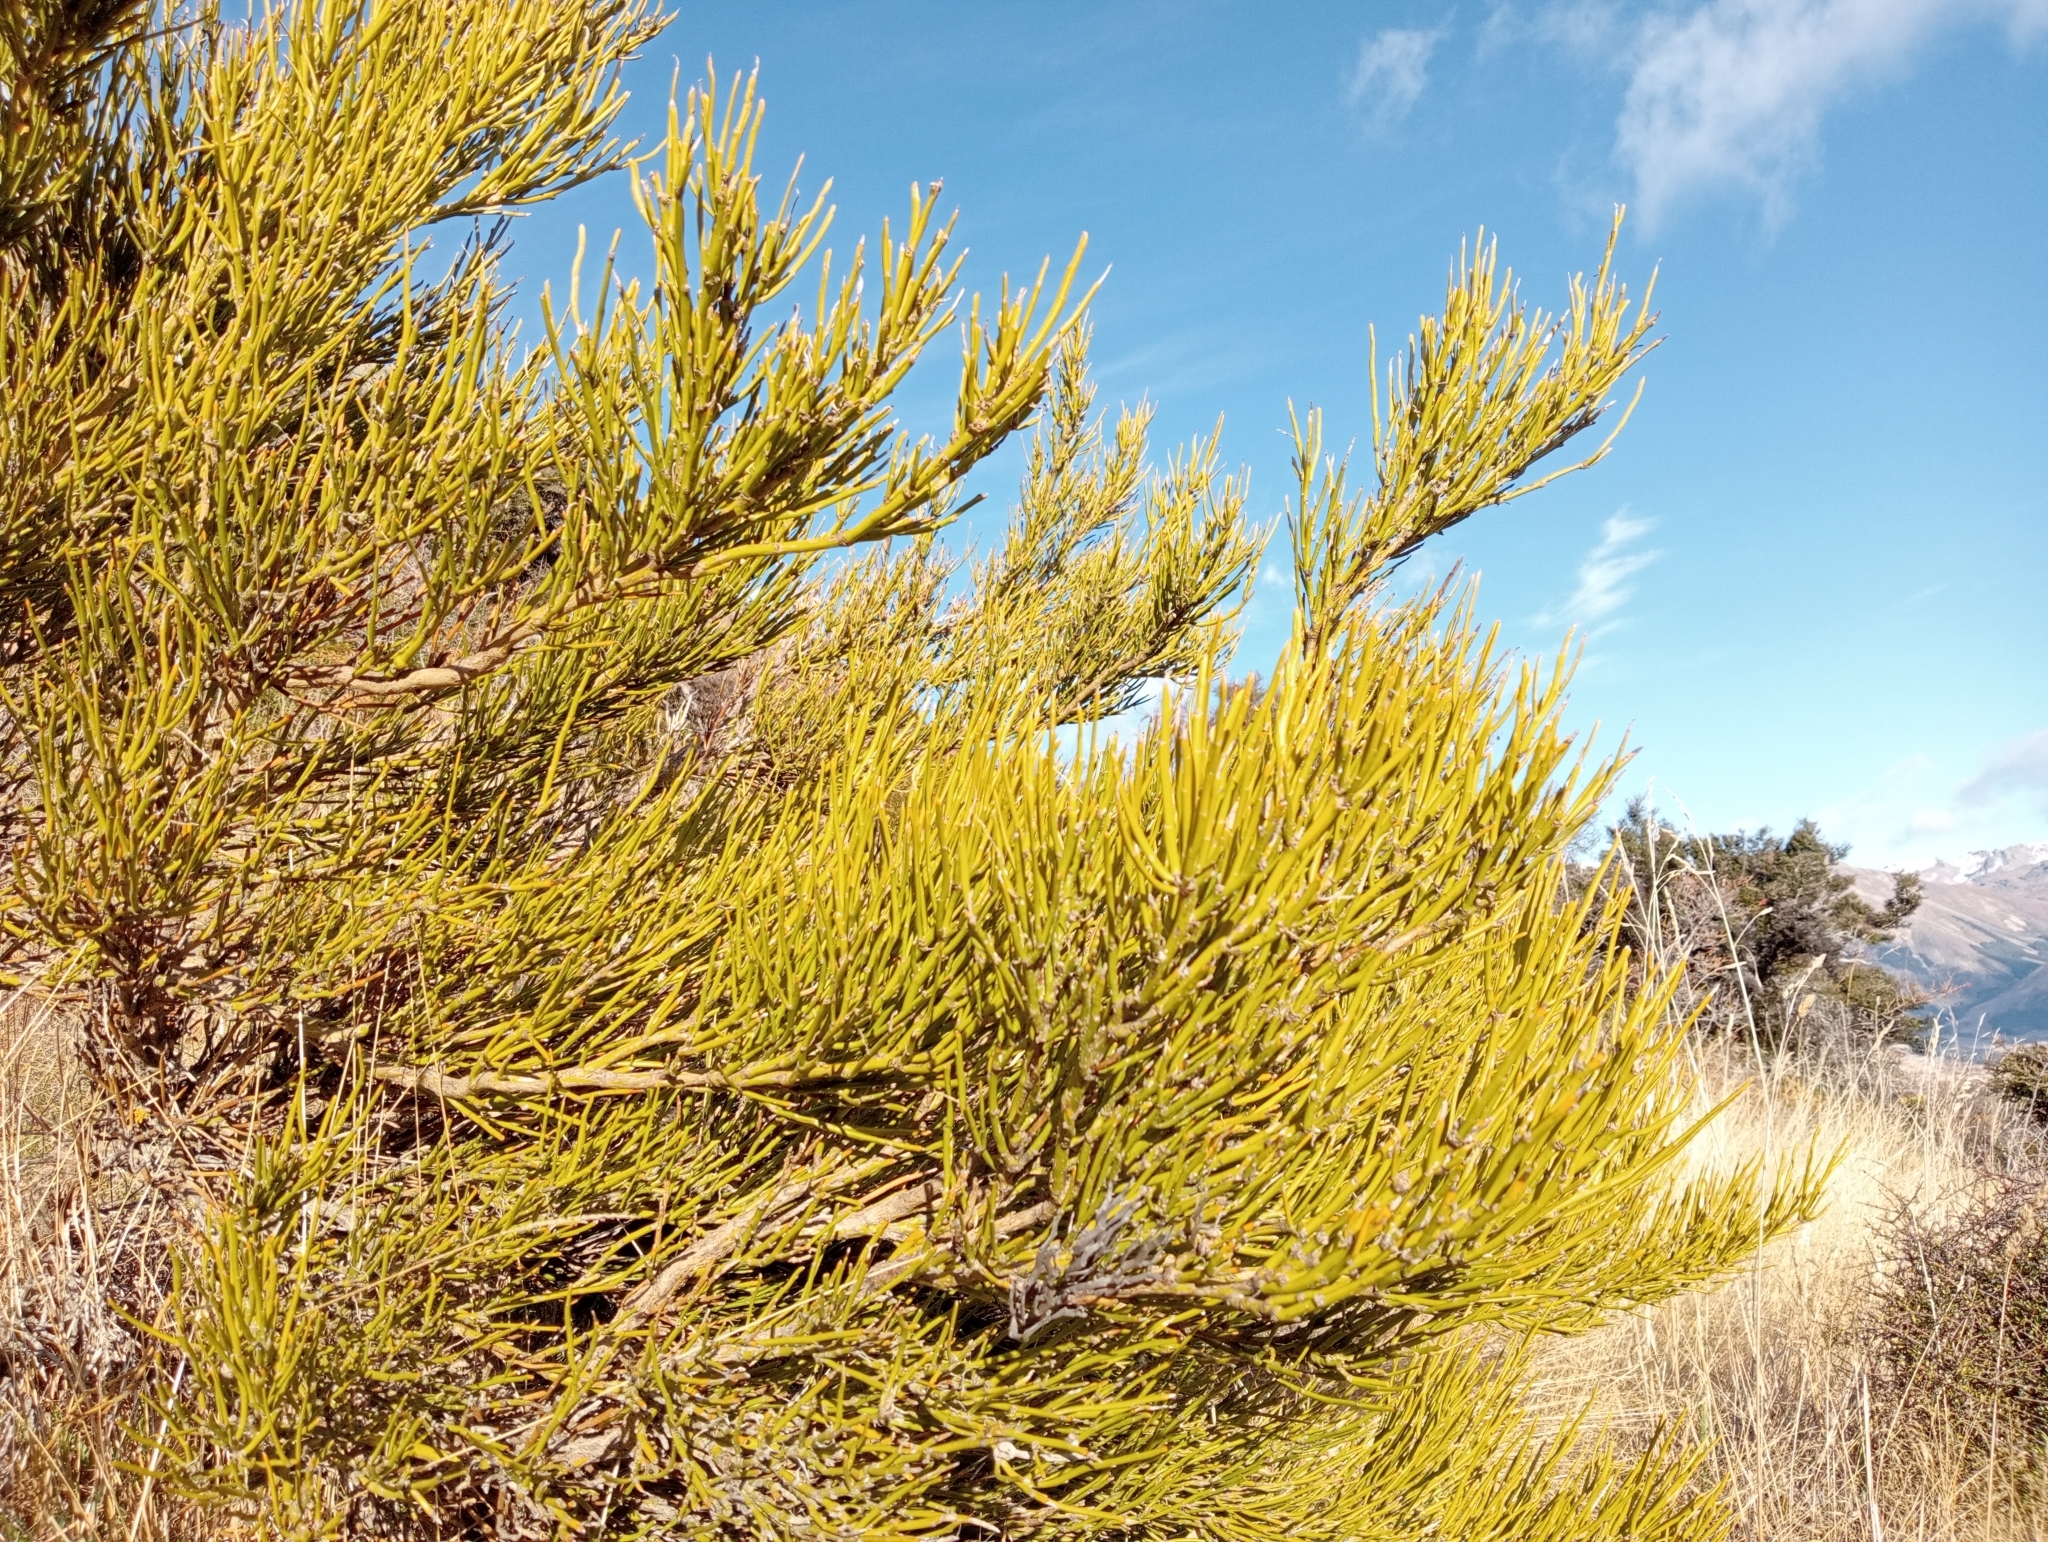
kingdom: Plantae
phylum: Tracheophyta
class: Magnoliopsida
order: Fabales
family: Fabaceae
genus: Carmichaelia
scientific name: Carmichaelia petriei
